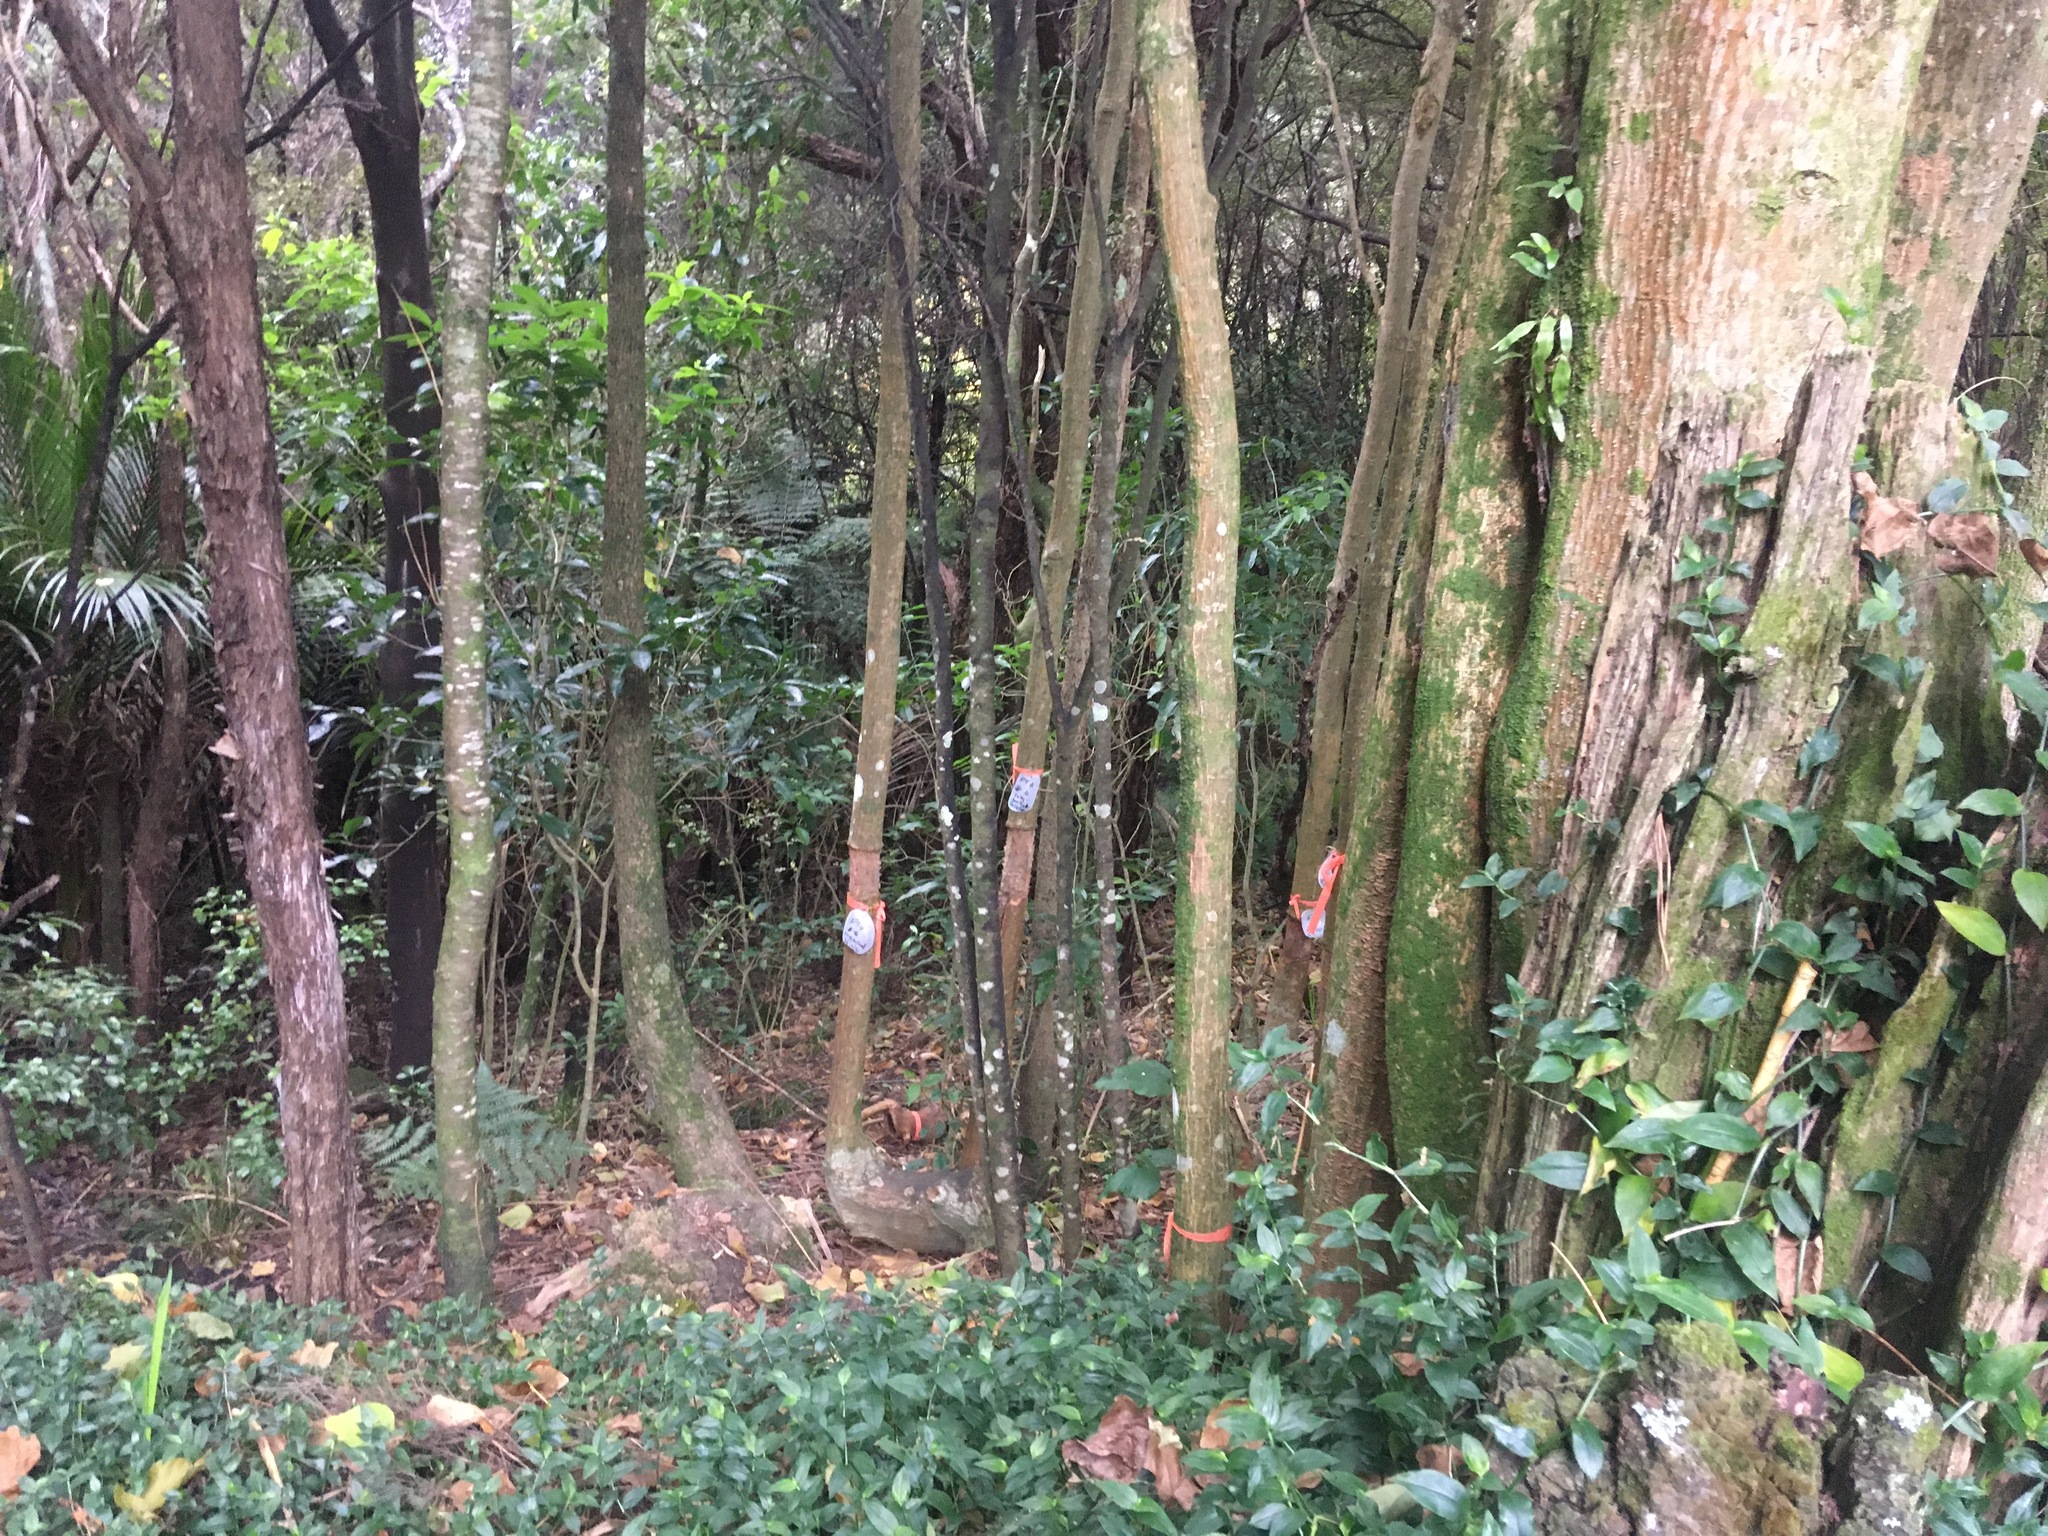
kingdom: Plantae
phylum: Tracheophyta
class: Magnoliopsida
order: Malpighiales
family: Violaceae
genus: Melicytus
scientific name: Melicytus ramiflorus
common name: Mahoe
